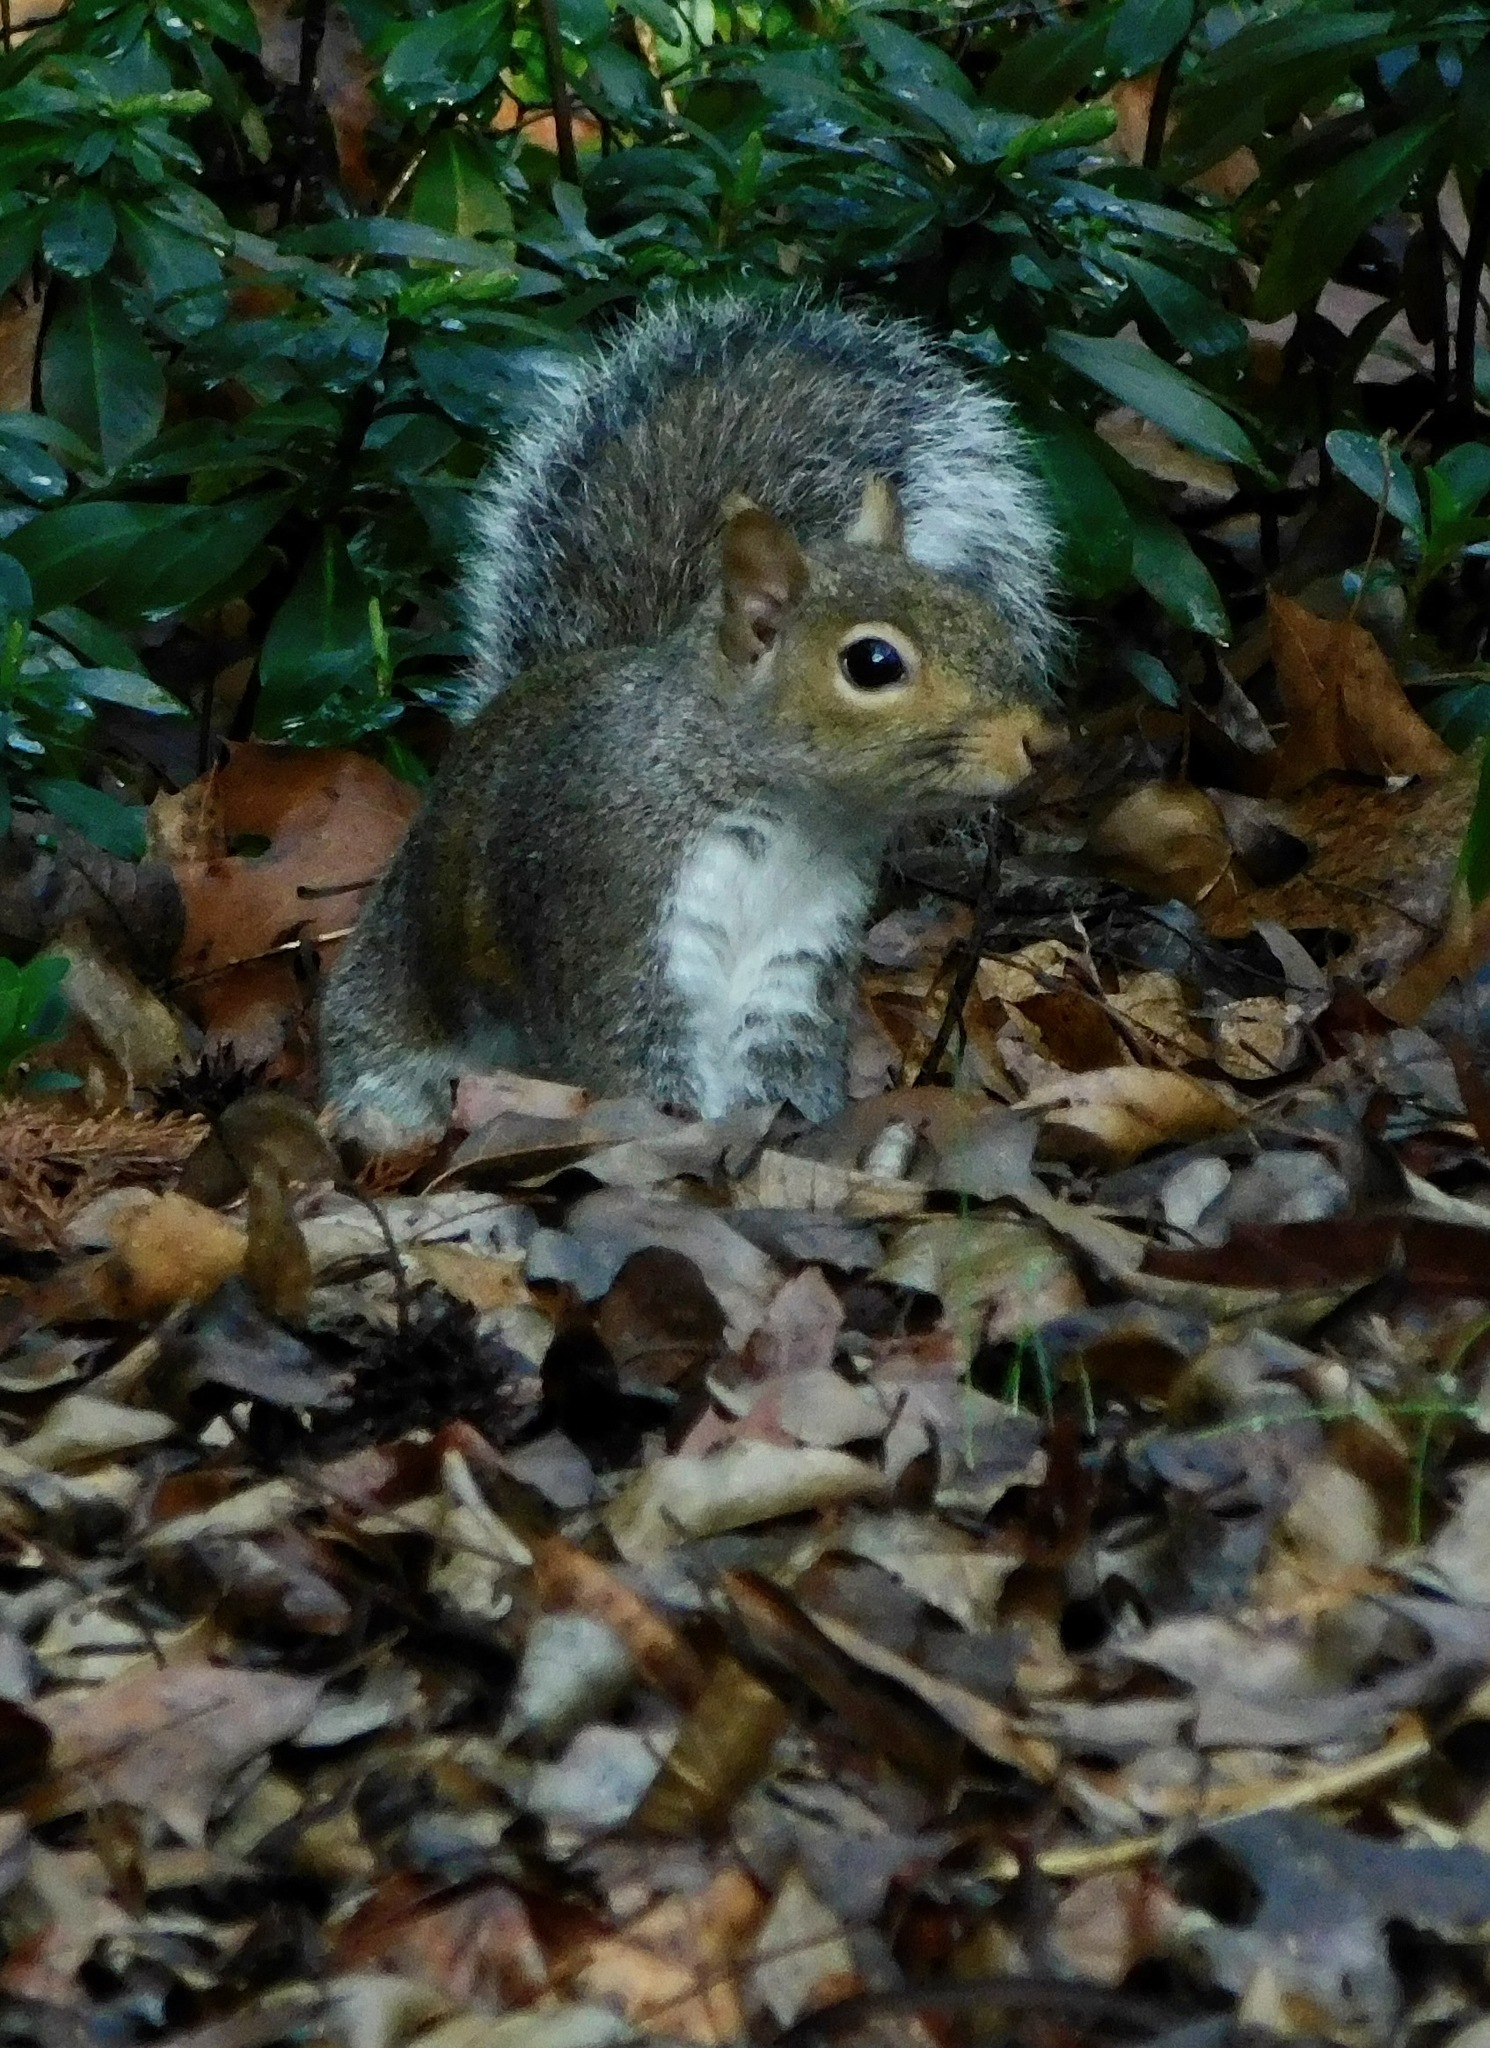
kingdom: Animalia
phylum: Chordata
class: Mammalia
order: Rodentia
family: Sciuridae
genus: Sciurus
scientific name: Sciurus carolinensis
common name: Eastern gray squirrel
